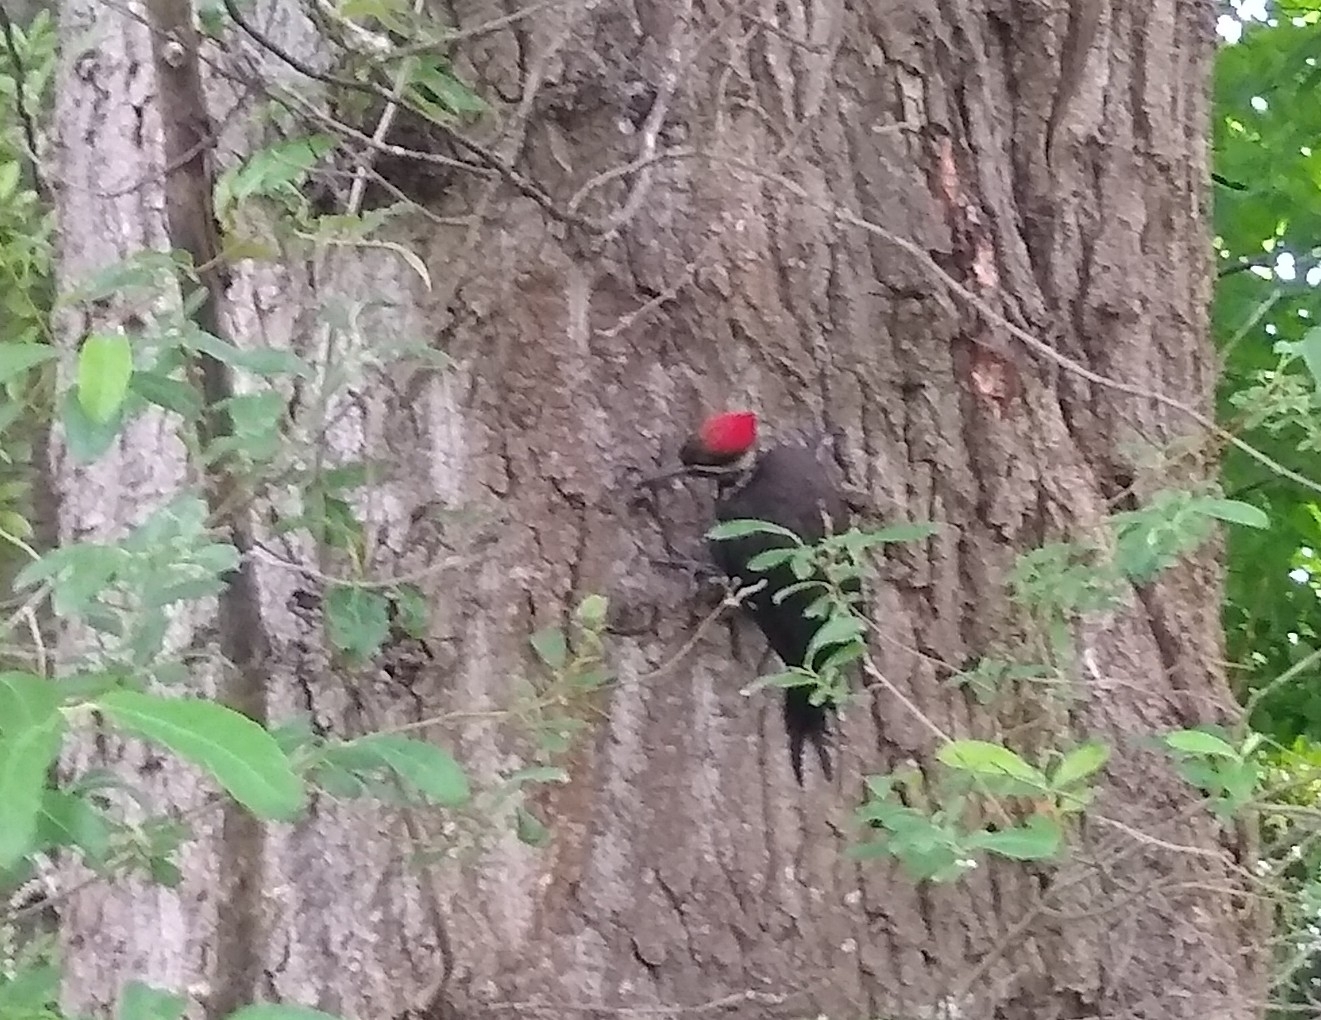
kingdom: Animalia
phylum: Chordata
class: Aves
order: Piciformes
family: Picidae
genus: Dryocopus
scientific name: Dryocopus pileatus
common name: Pileated woodpecker
